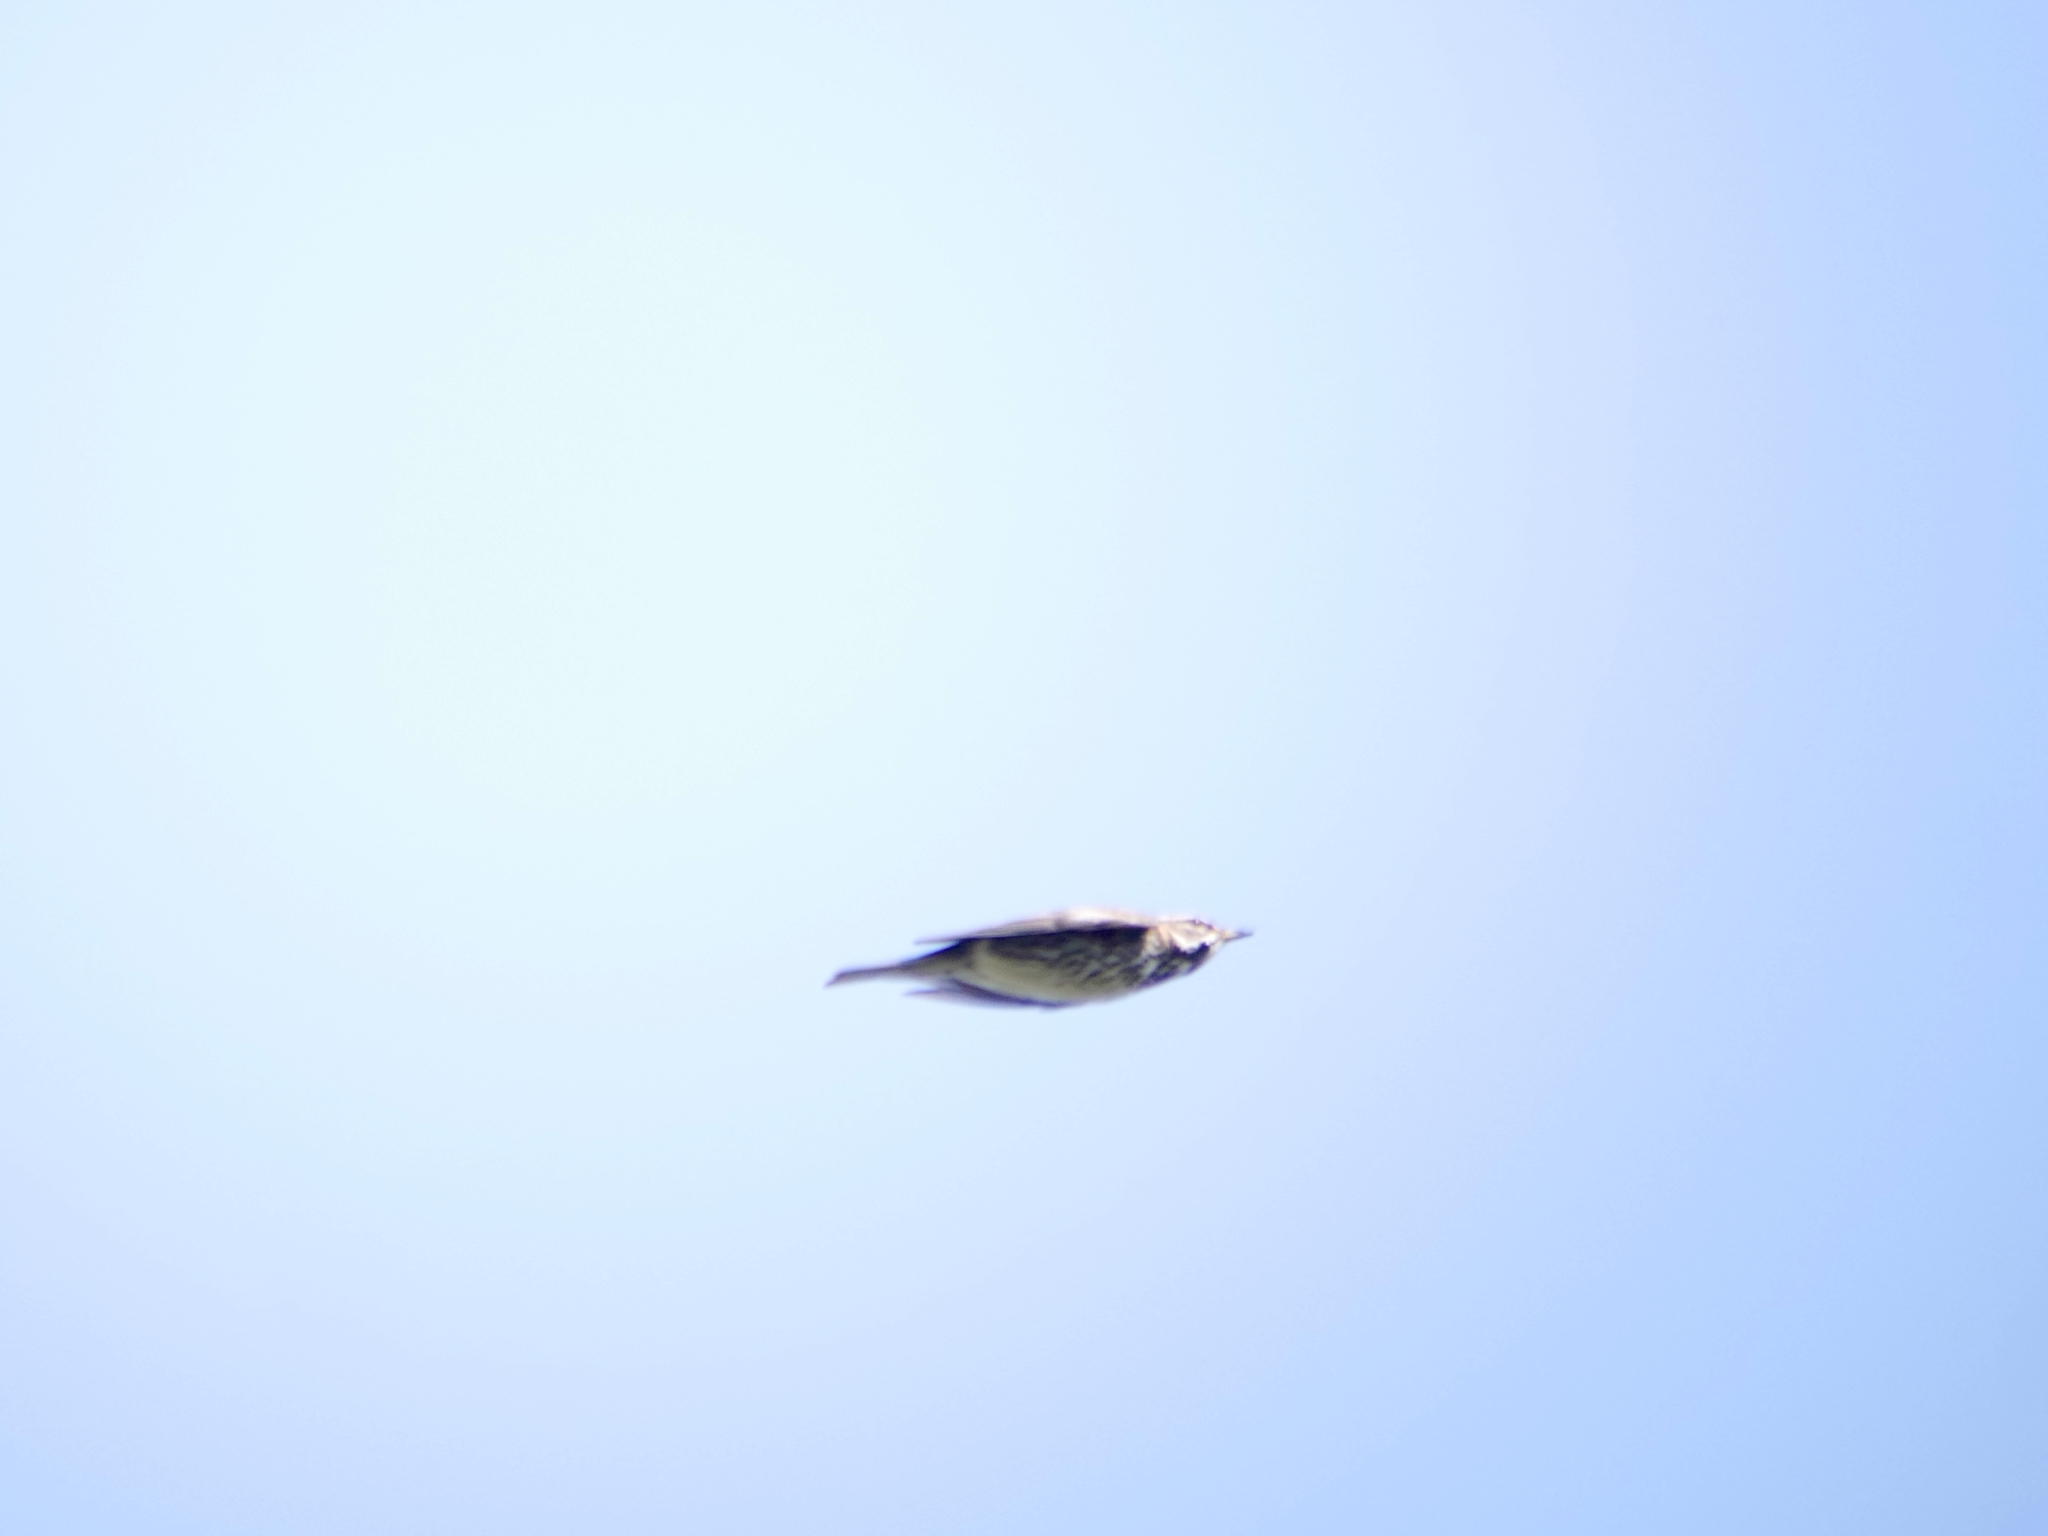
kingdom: Animalia
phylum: Chordata
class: Aves
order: Passeriformes
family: Turdidae
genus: Turdus
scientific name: Turdus iliacus
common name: Redwing
